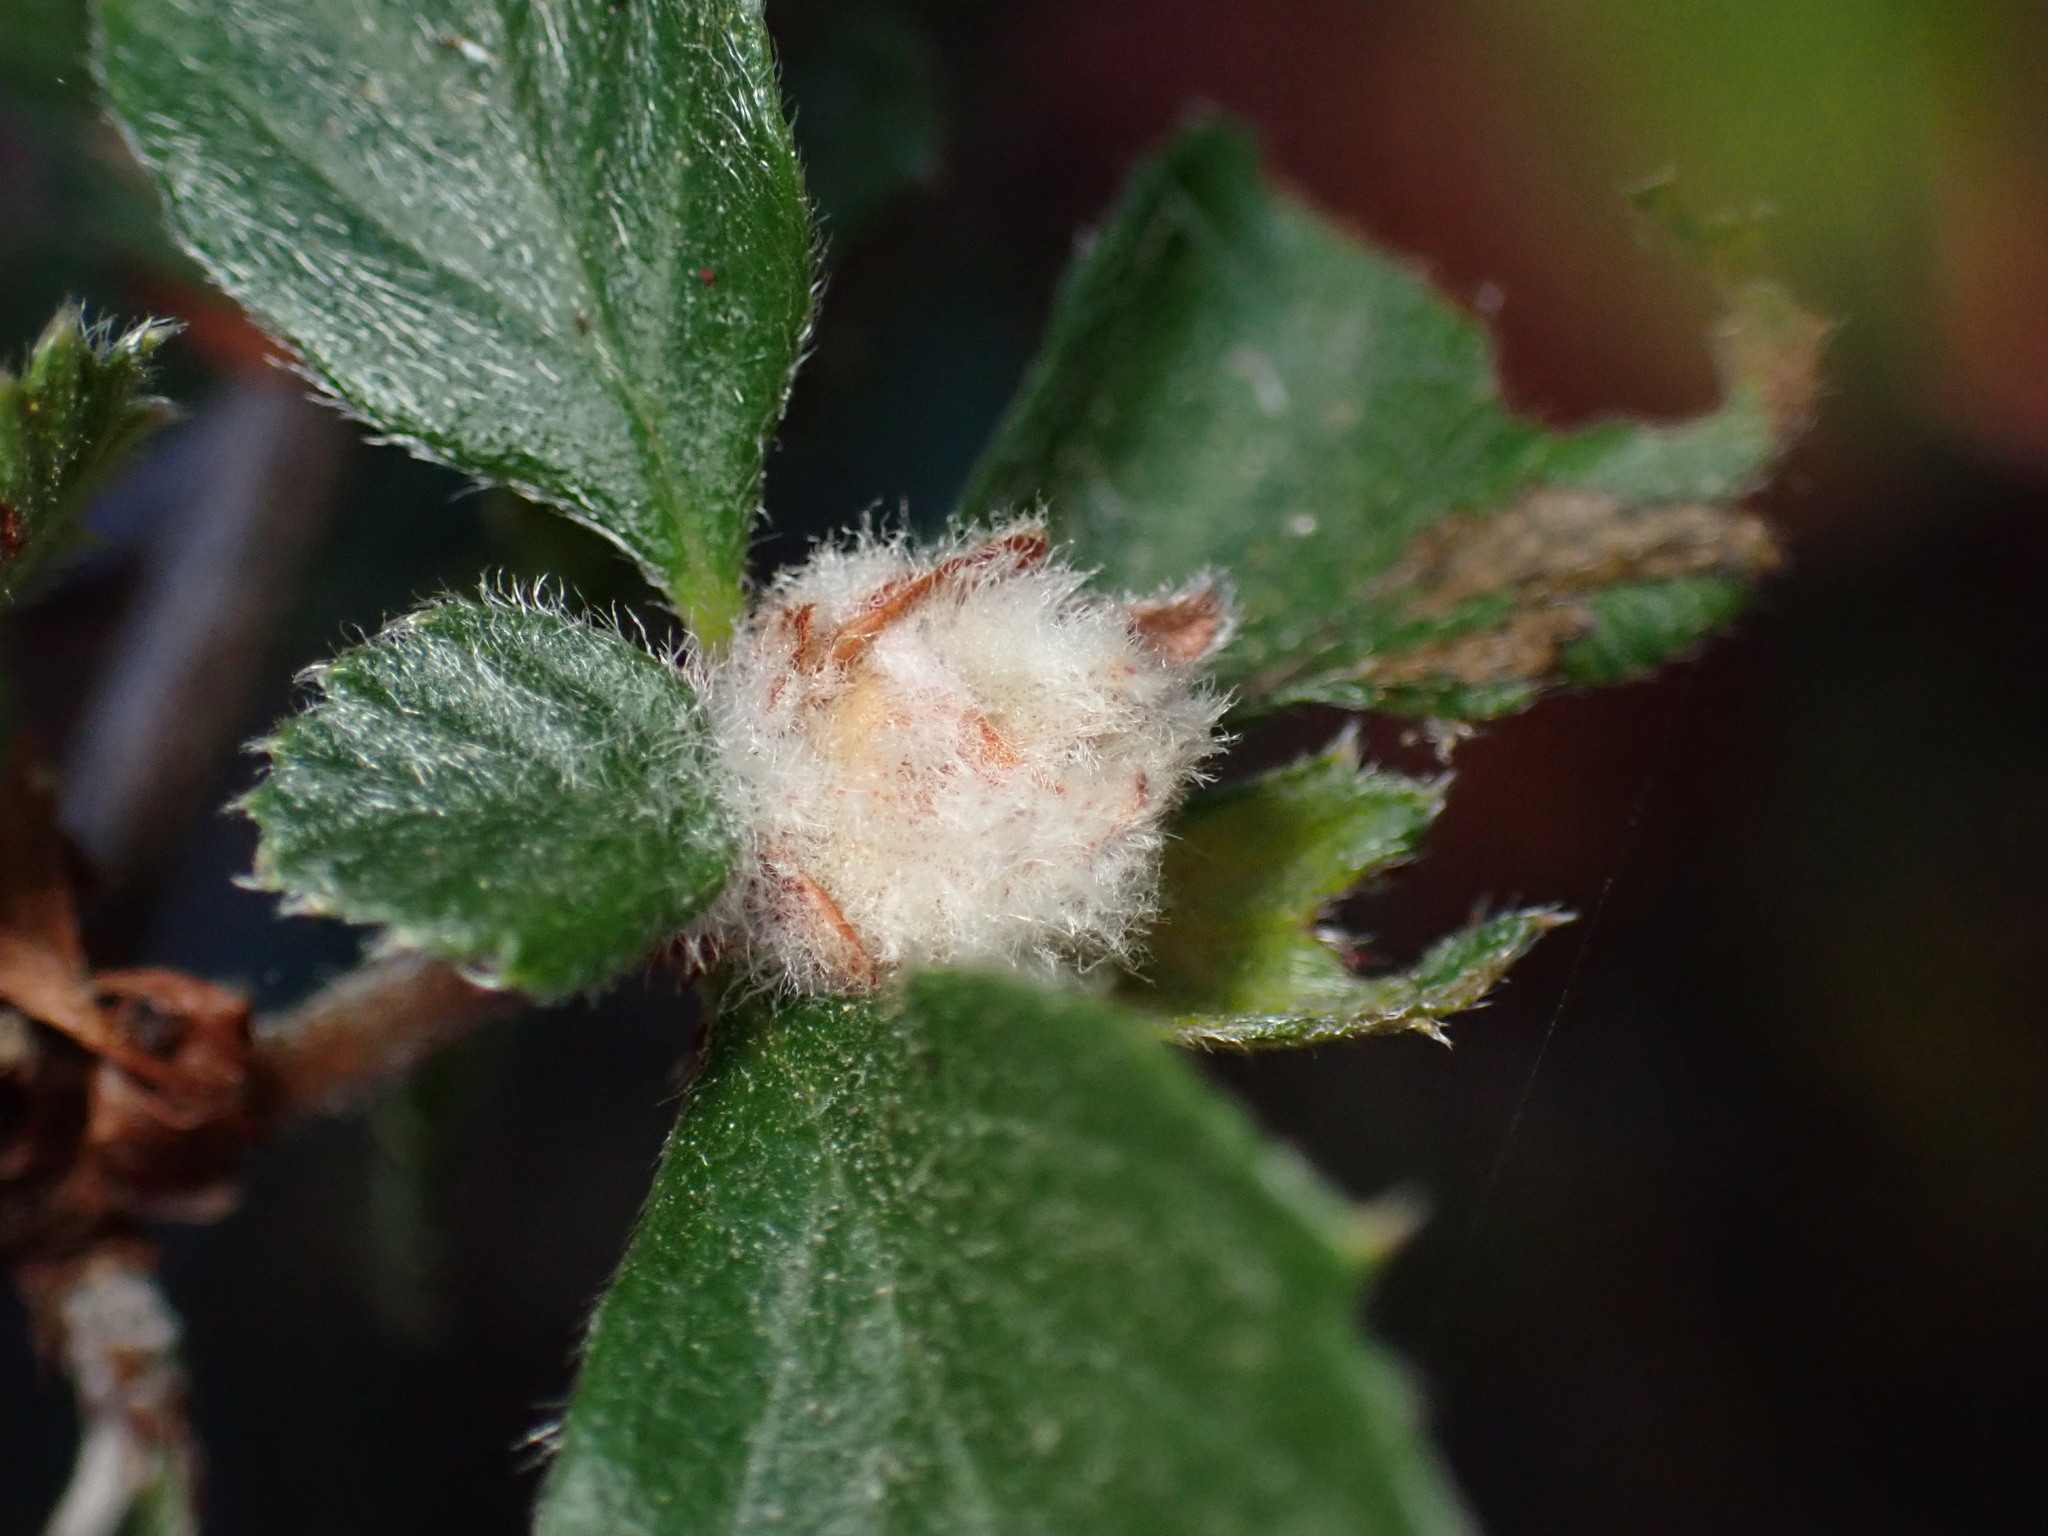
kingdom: Animalia
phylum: Arthropoda
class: Insecta
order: Diptera
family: Cecidomyiidae
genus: Dasineura
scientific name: Dasineura cercocarpi
